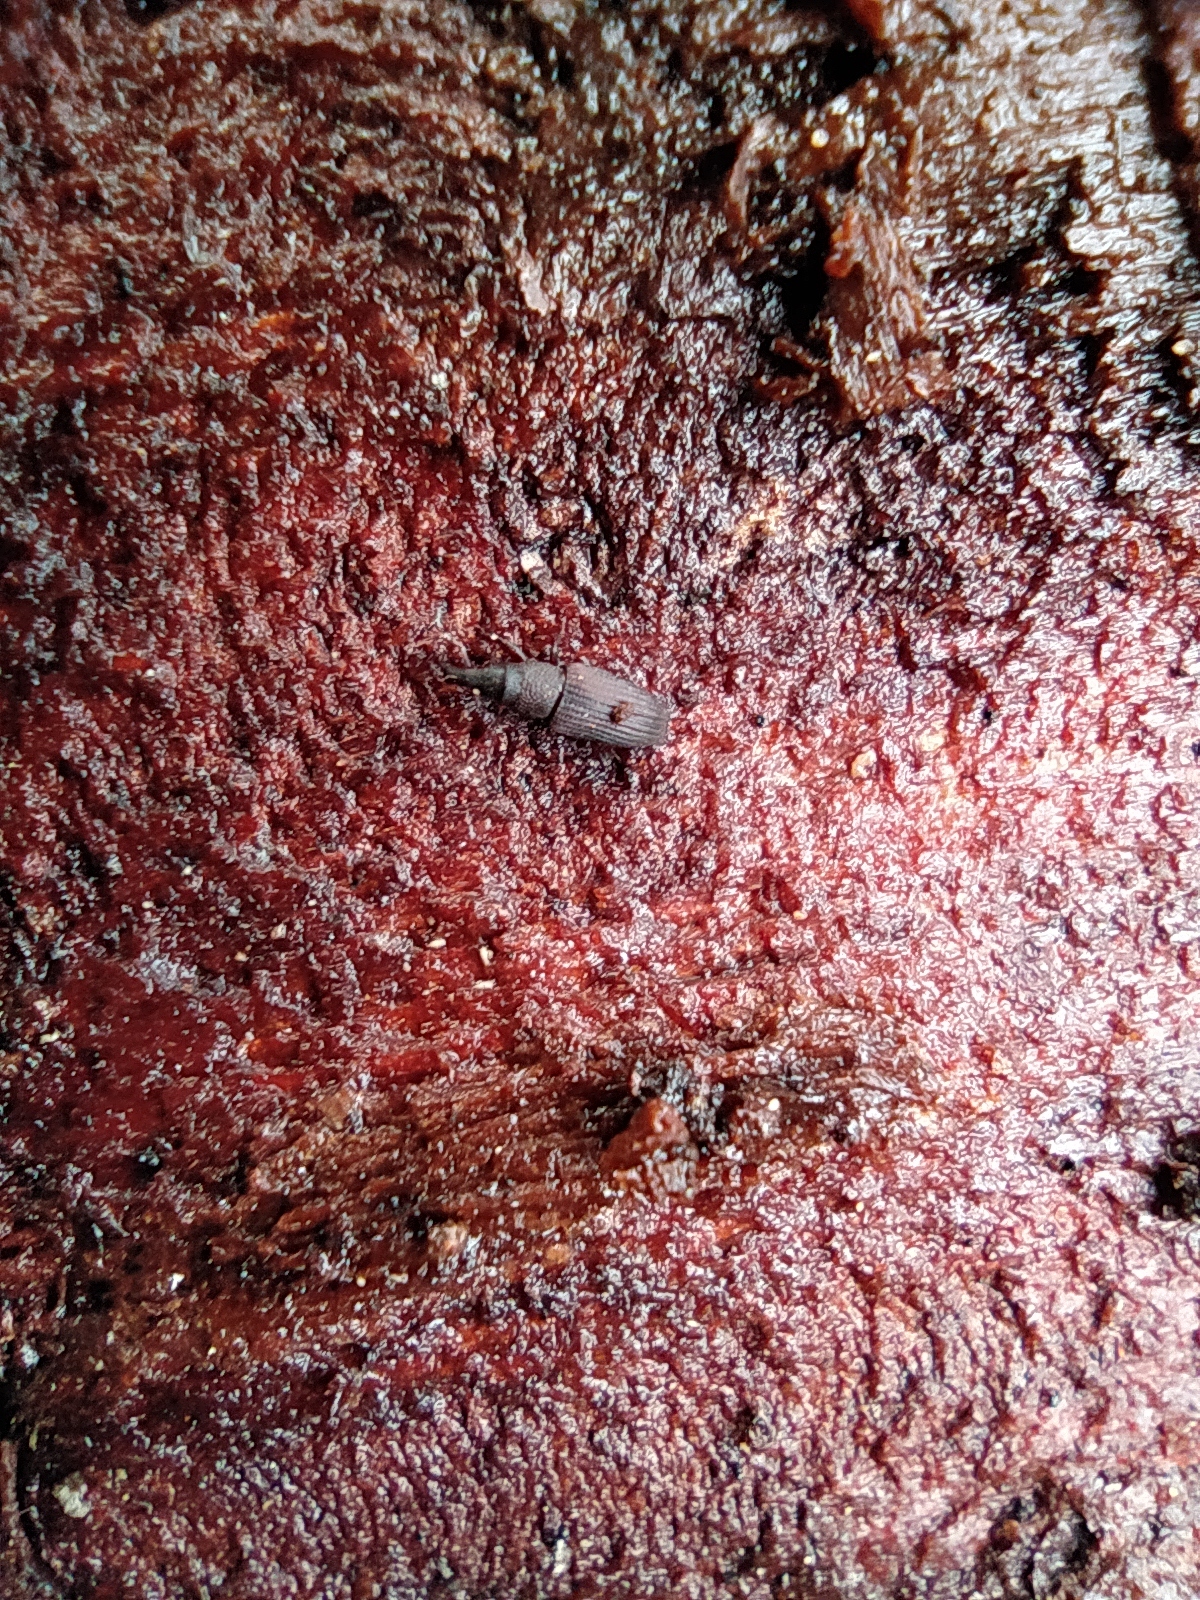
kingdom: Animalia
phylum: Arthropoda
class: Insecta
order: Coleoptera
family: Dryophthoridae
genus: Dryophthorus
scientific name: Dryophthorus corticalis
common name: Wood-boring weevil
